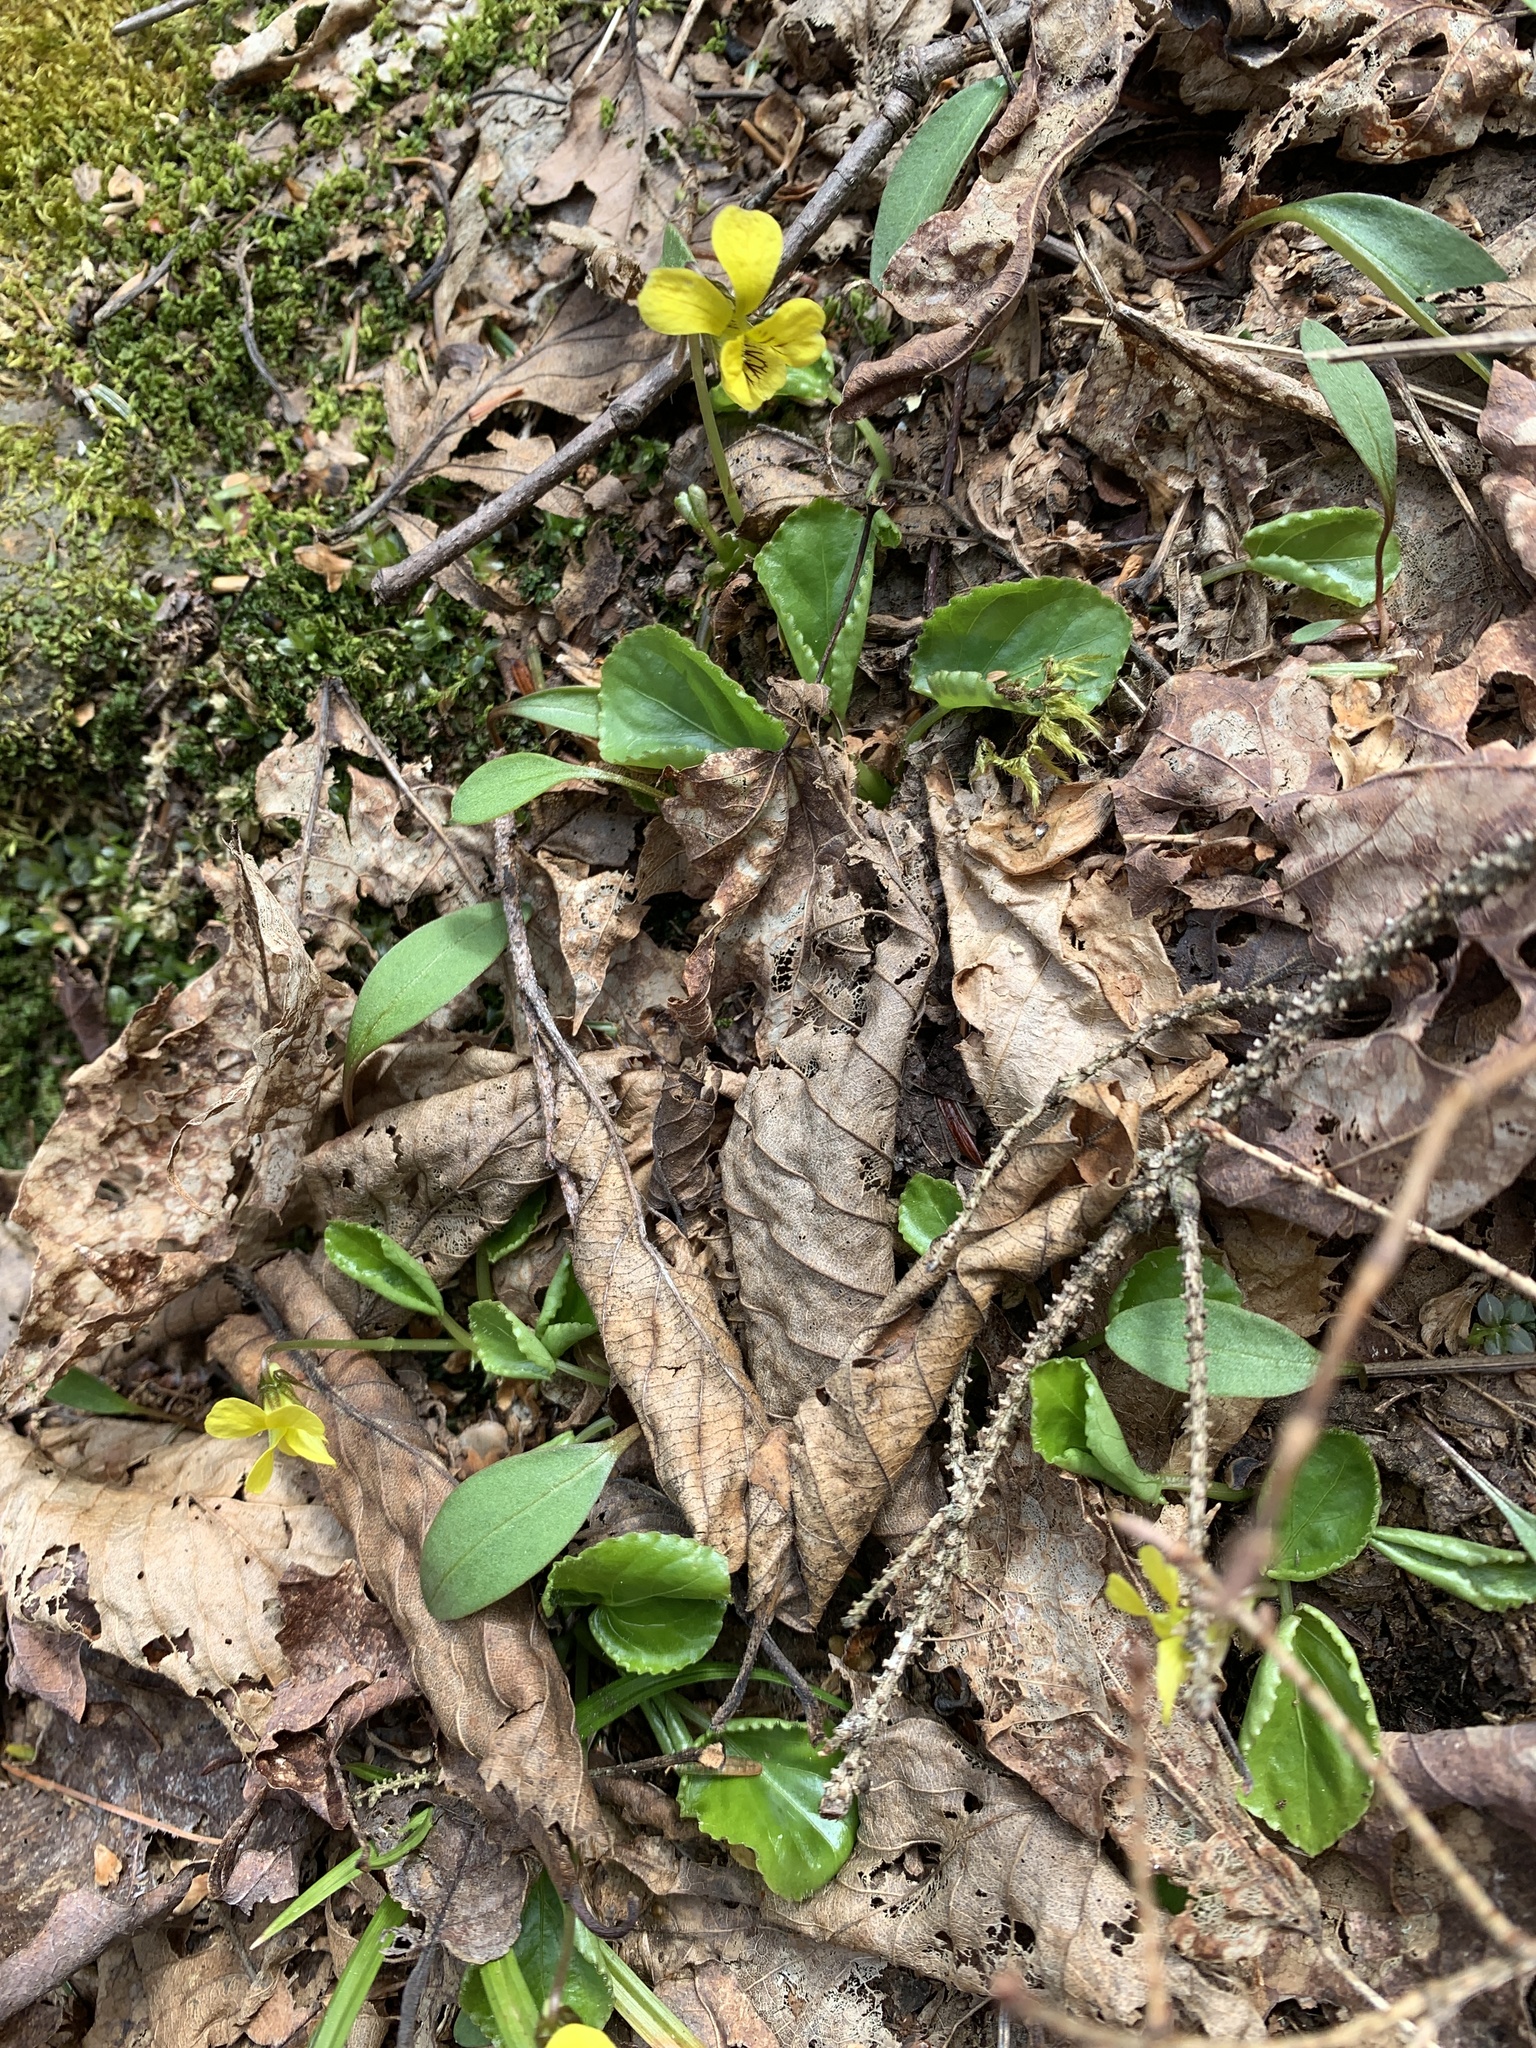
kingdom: Plantae
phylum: Tracheophyta
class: Magnoliopsida
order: Malpighiales
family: Violaceae
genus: Viola
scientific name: Viola rotundifolia
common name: Early yellow violet
